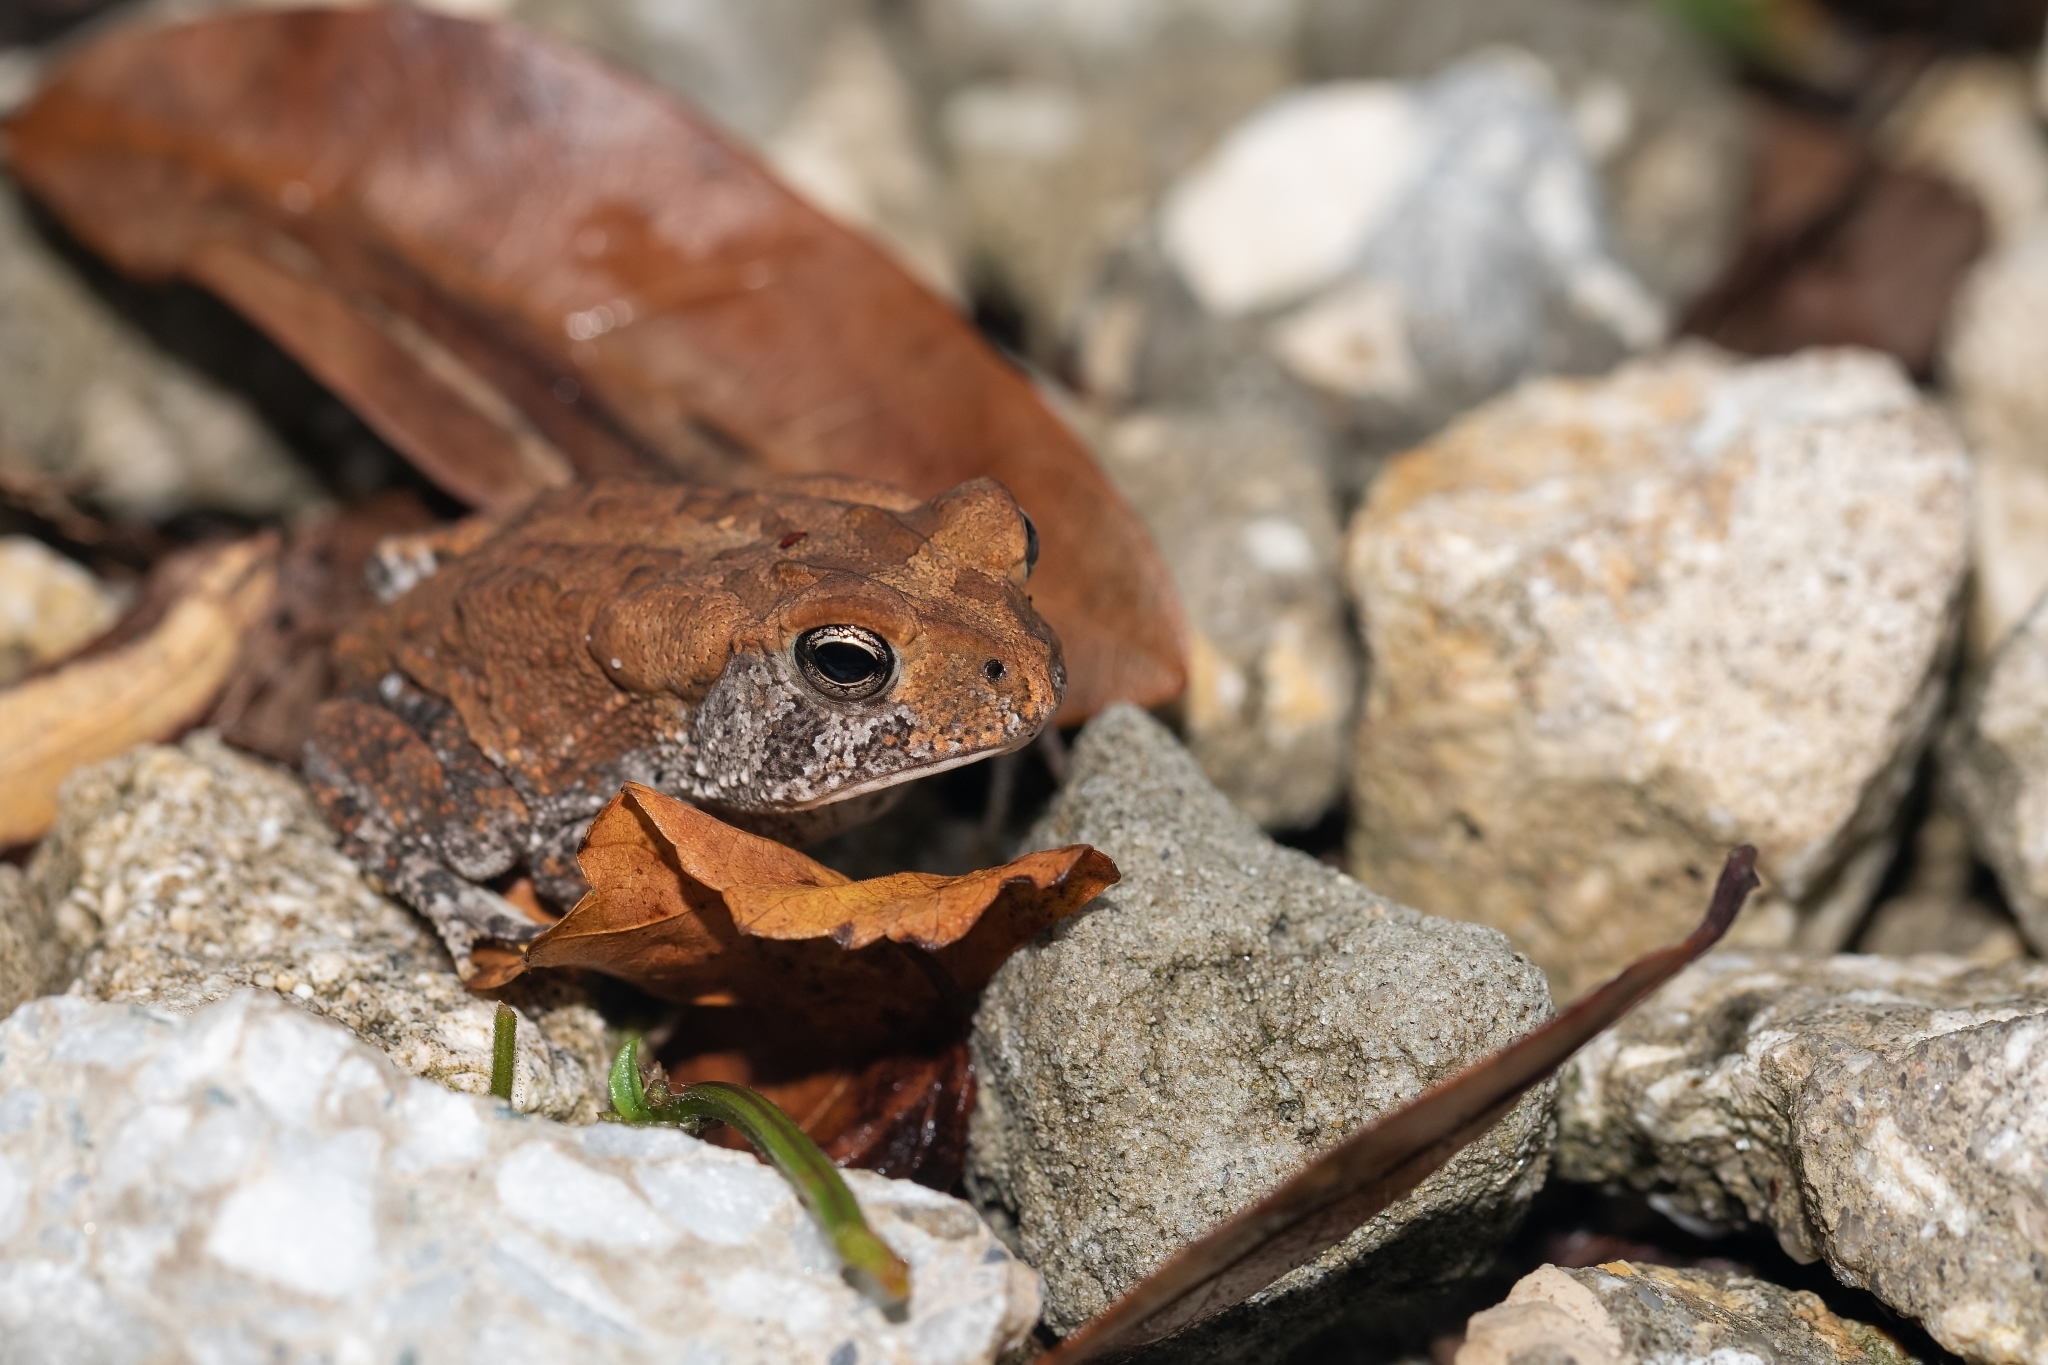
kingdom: Animalia
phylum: Chordata
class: Amphibia
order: Anura
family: Bufonidae
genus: Anaxyrus
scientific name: Anaxyrus terrestris
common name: Southern toad
